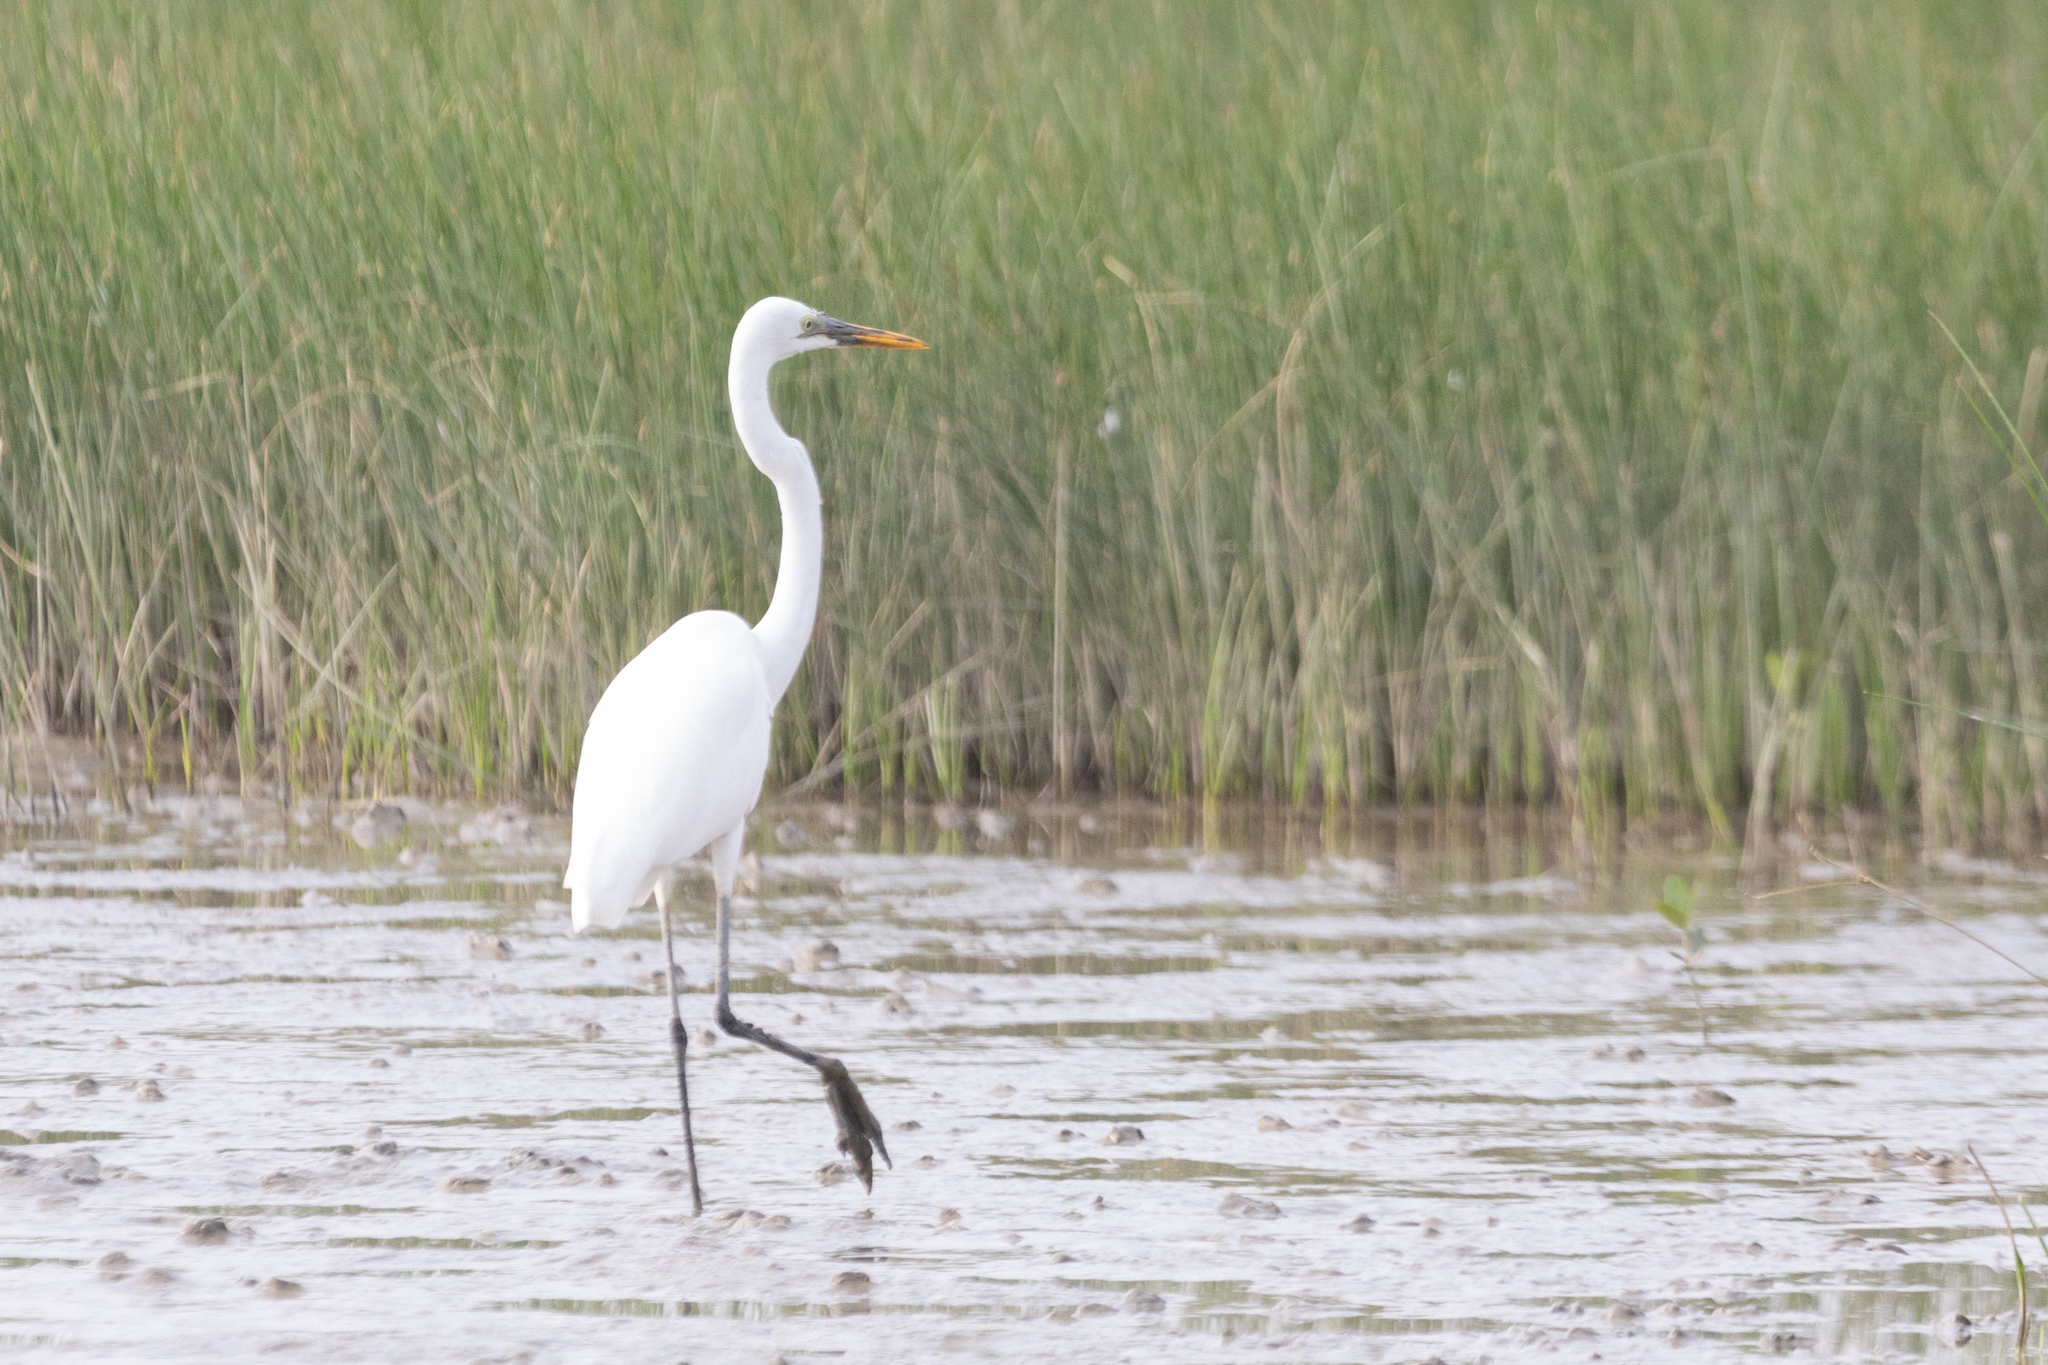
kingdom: Animalia
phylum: Chordata
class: Aves
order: Pelecaniformes
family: Ardeidae
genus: Ardea
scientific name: Ardea alba
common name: Great egret
